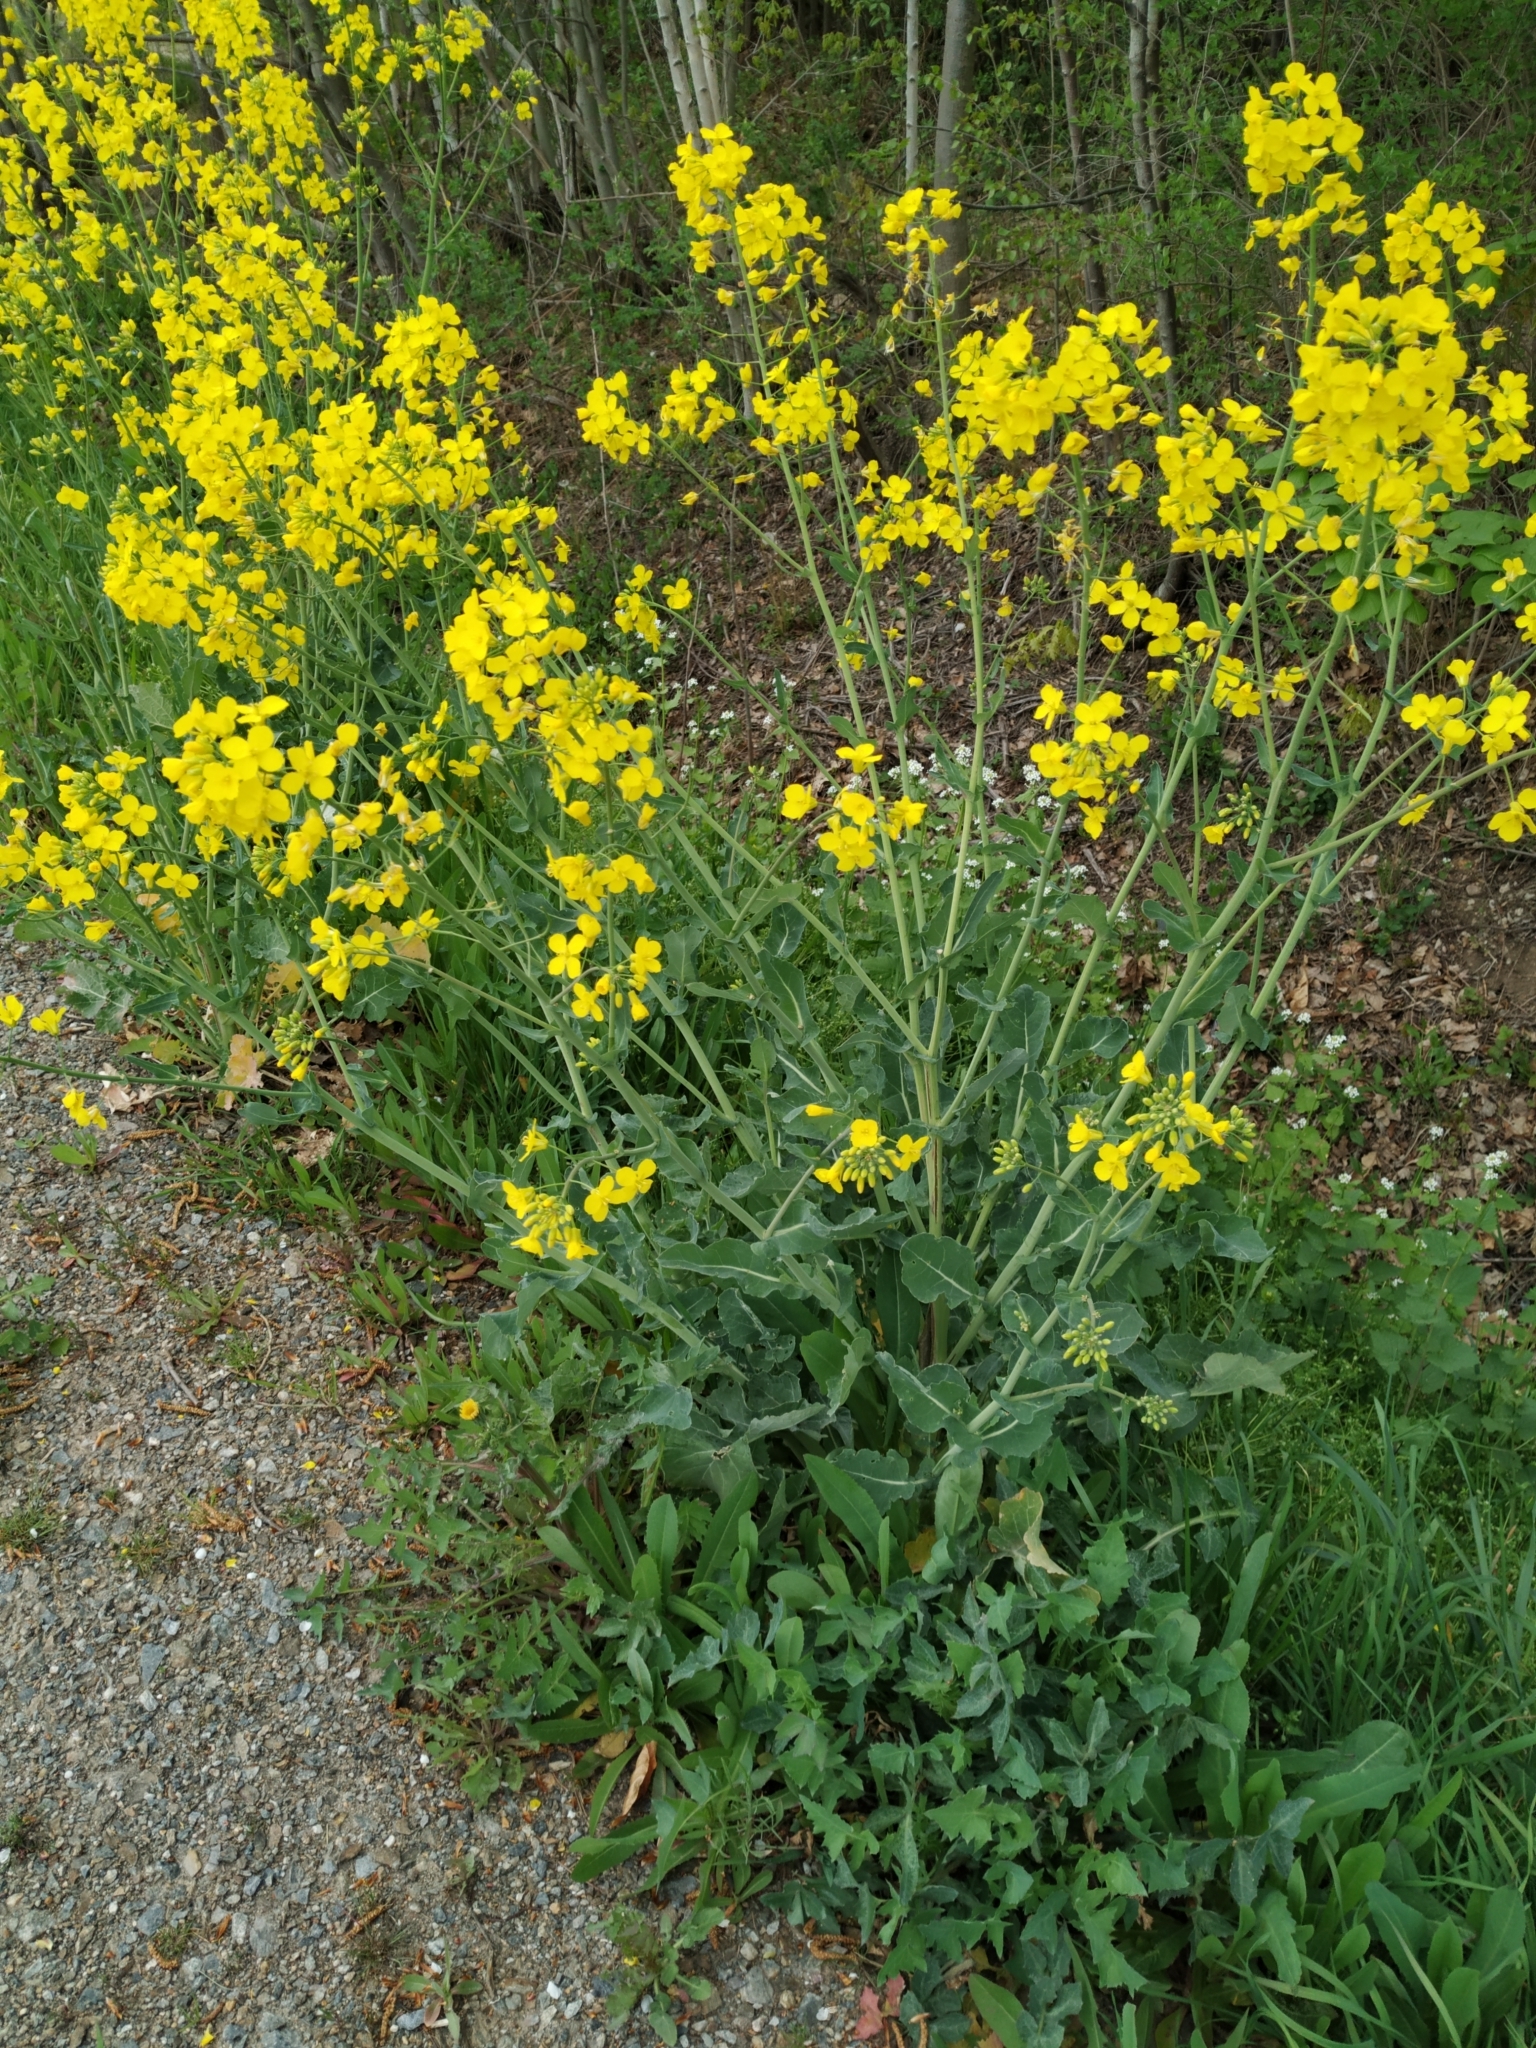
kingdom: Plantae
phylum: Tracheophyta
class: Magnoliopsida
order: Brassicales
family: Brassicaceae
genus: Brassica
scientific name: Brassica napus
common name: Rape
